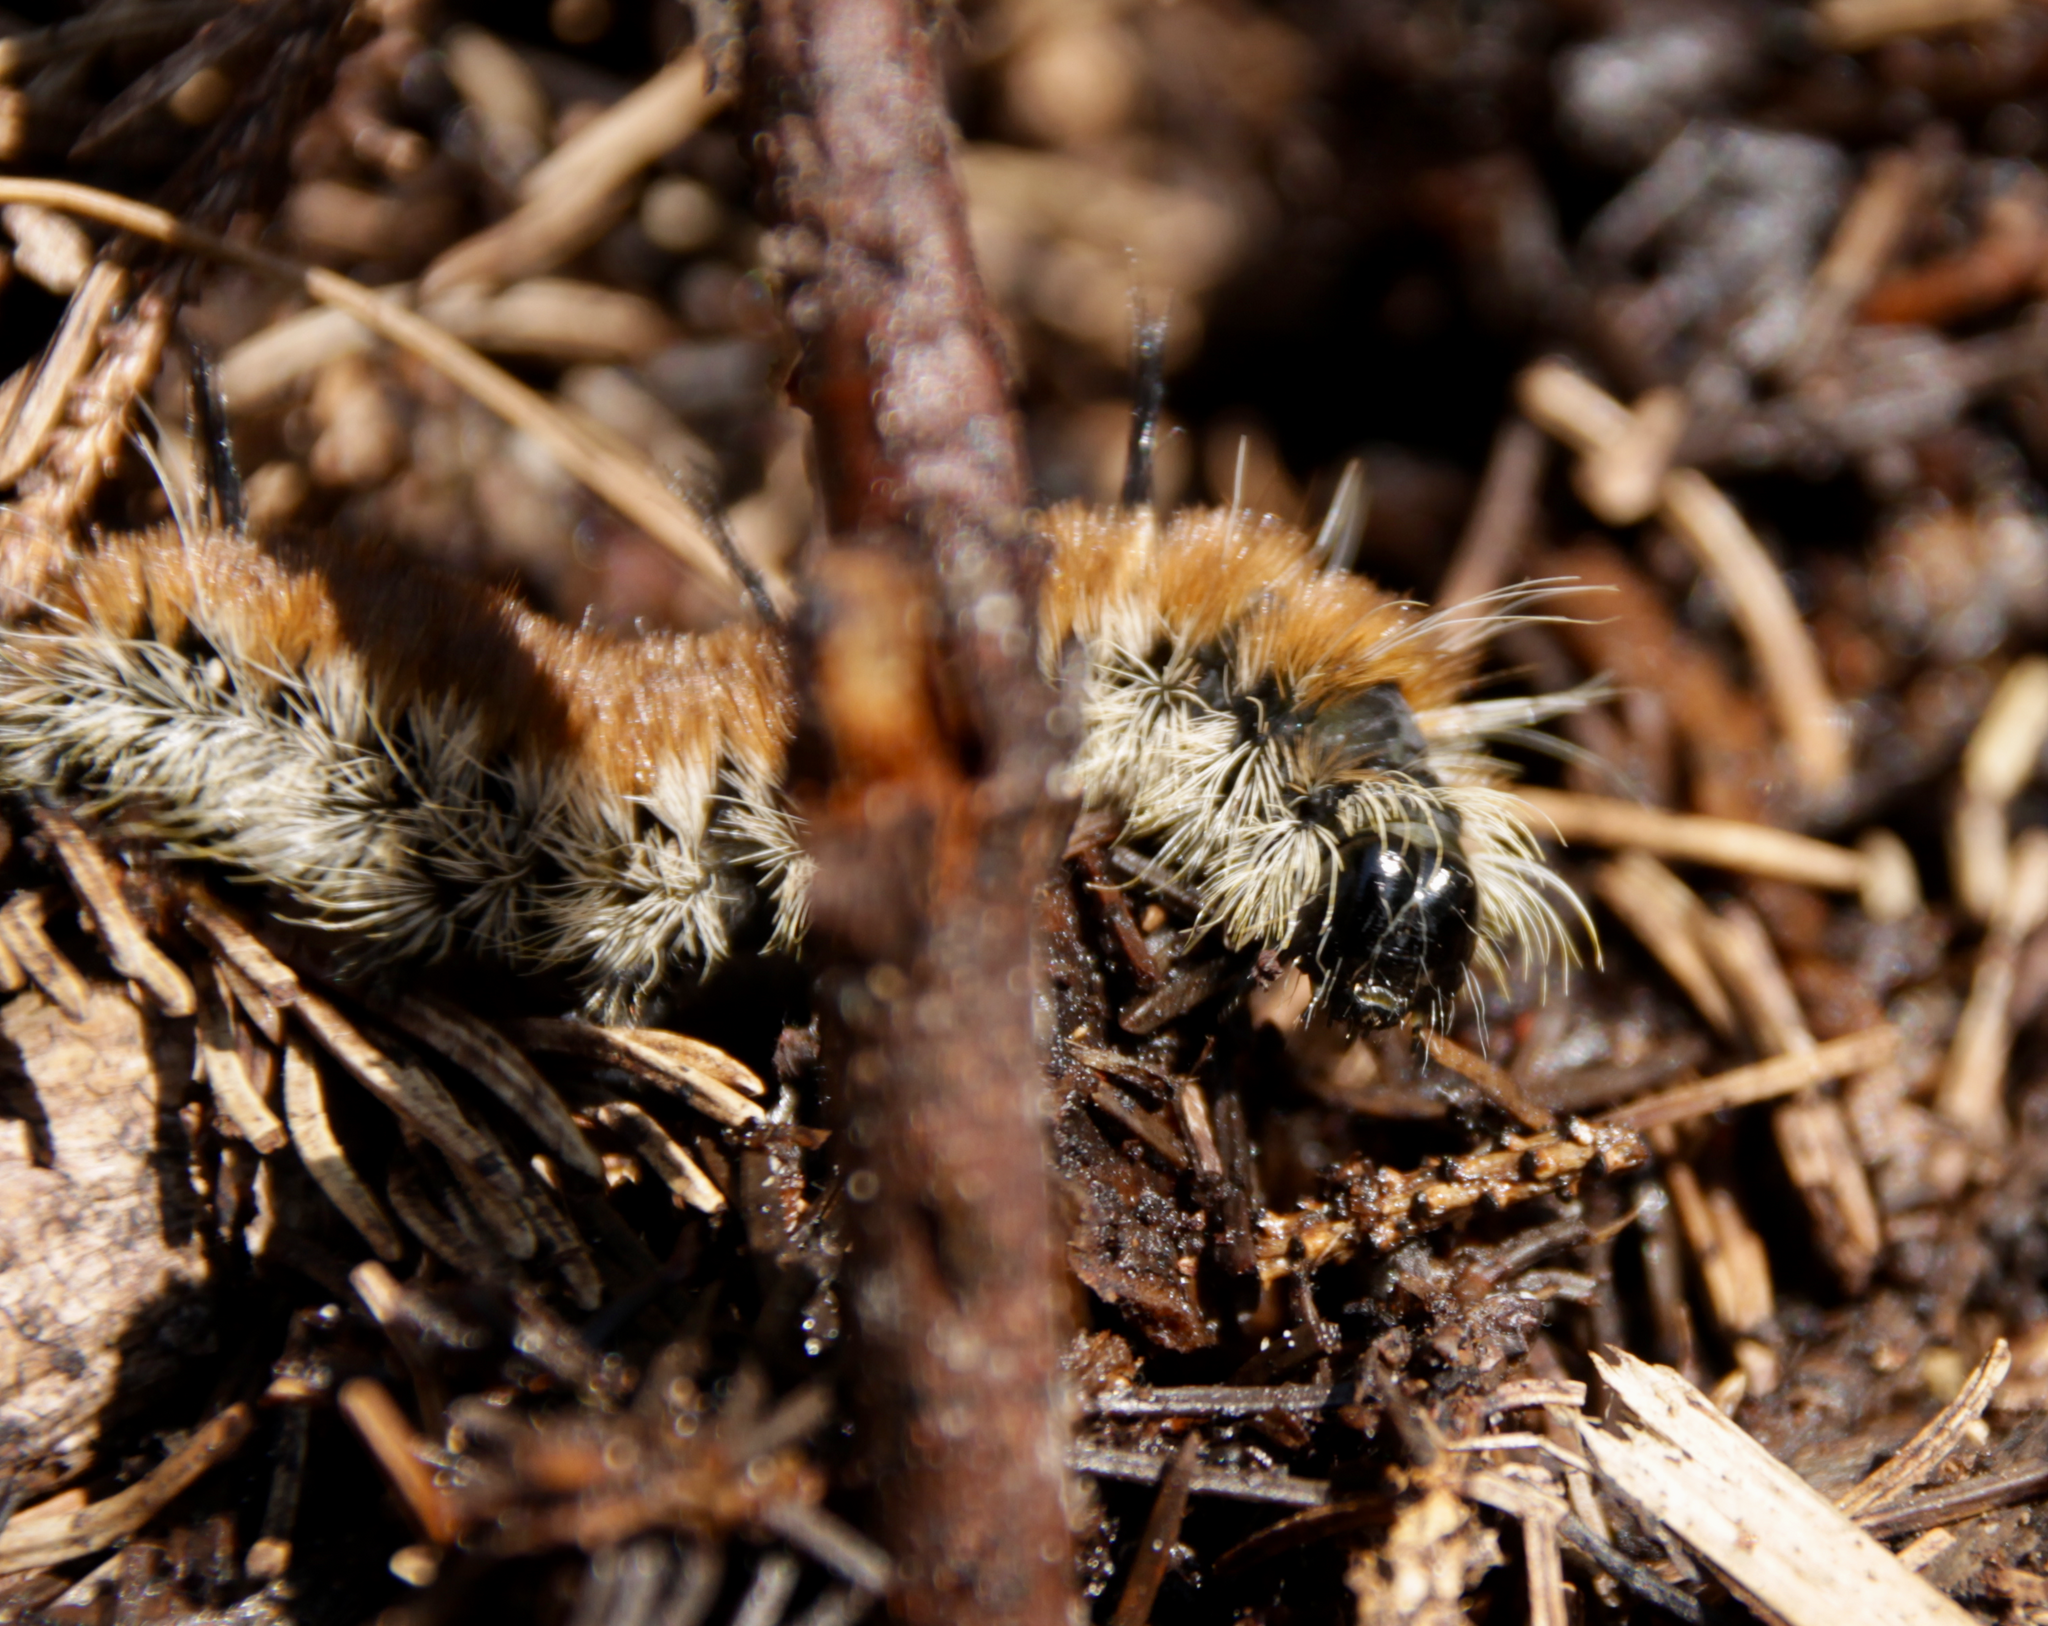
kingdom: Animalia
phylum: Arthropoda
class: Insecta
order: Lepidoptera
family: Noctuidae
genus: Acronicta
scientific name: Acronicta insita
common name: Large gray dagger
